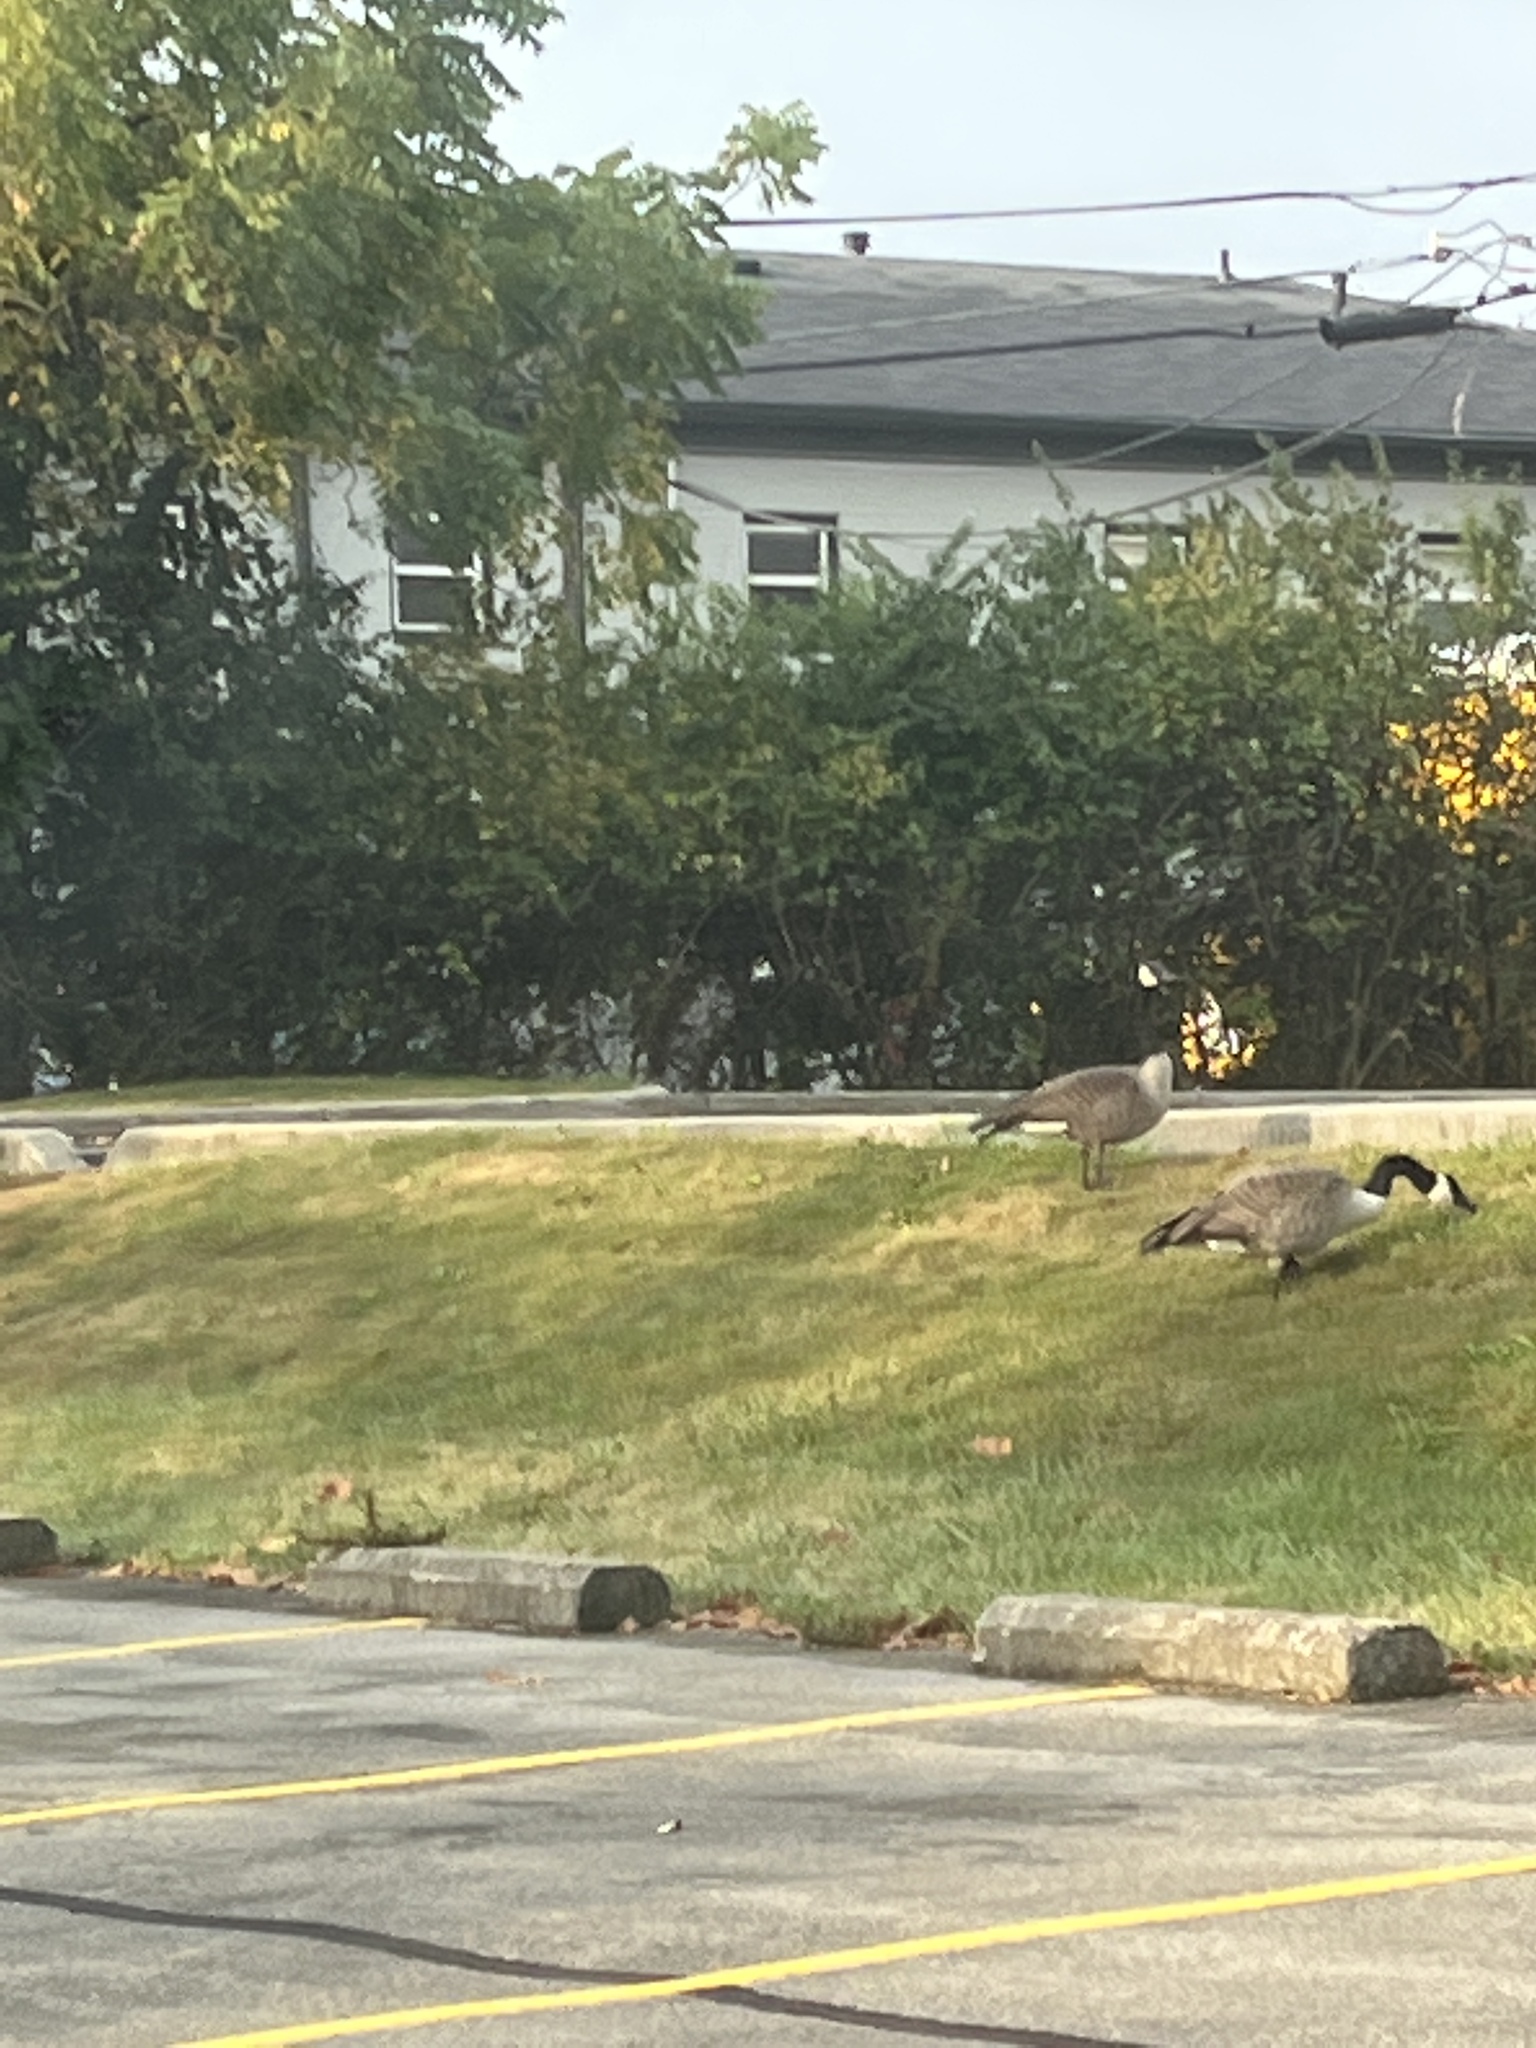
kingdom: Animalia
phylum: Chordata
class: Aves
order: Anseriformes
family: Anatidae
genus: Branta
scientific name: Branta canadensis
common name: Canada goose
